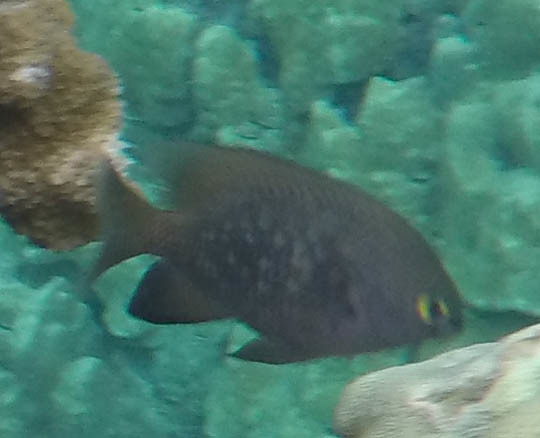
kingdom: Animalia
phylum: Chordata
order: Perciformes
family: Pomacentridae
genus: Stegastes
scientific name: Stegastes fasciolatus
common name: Pacific gregory
